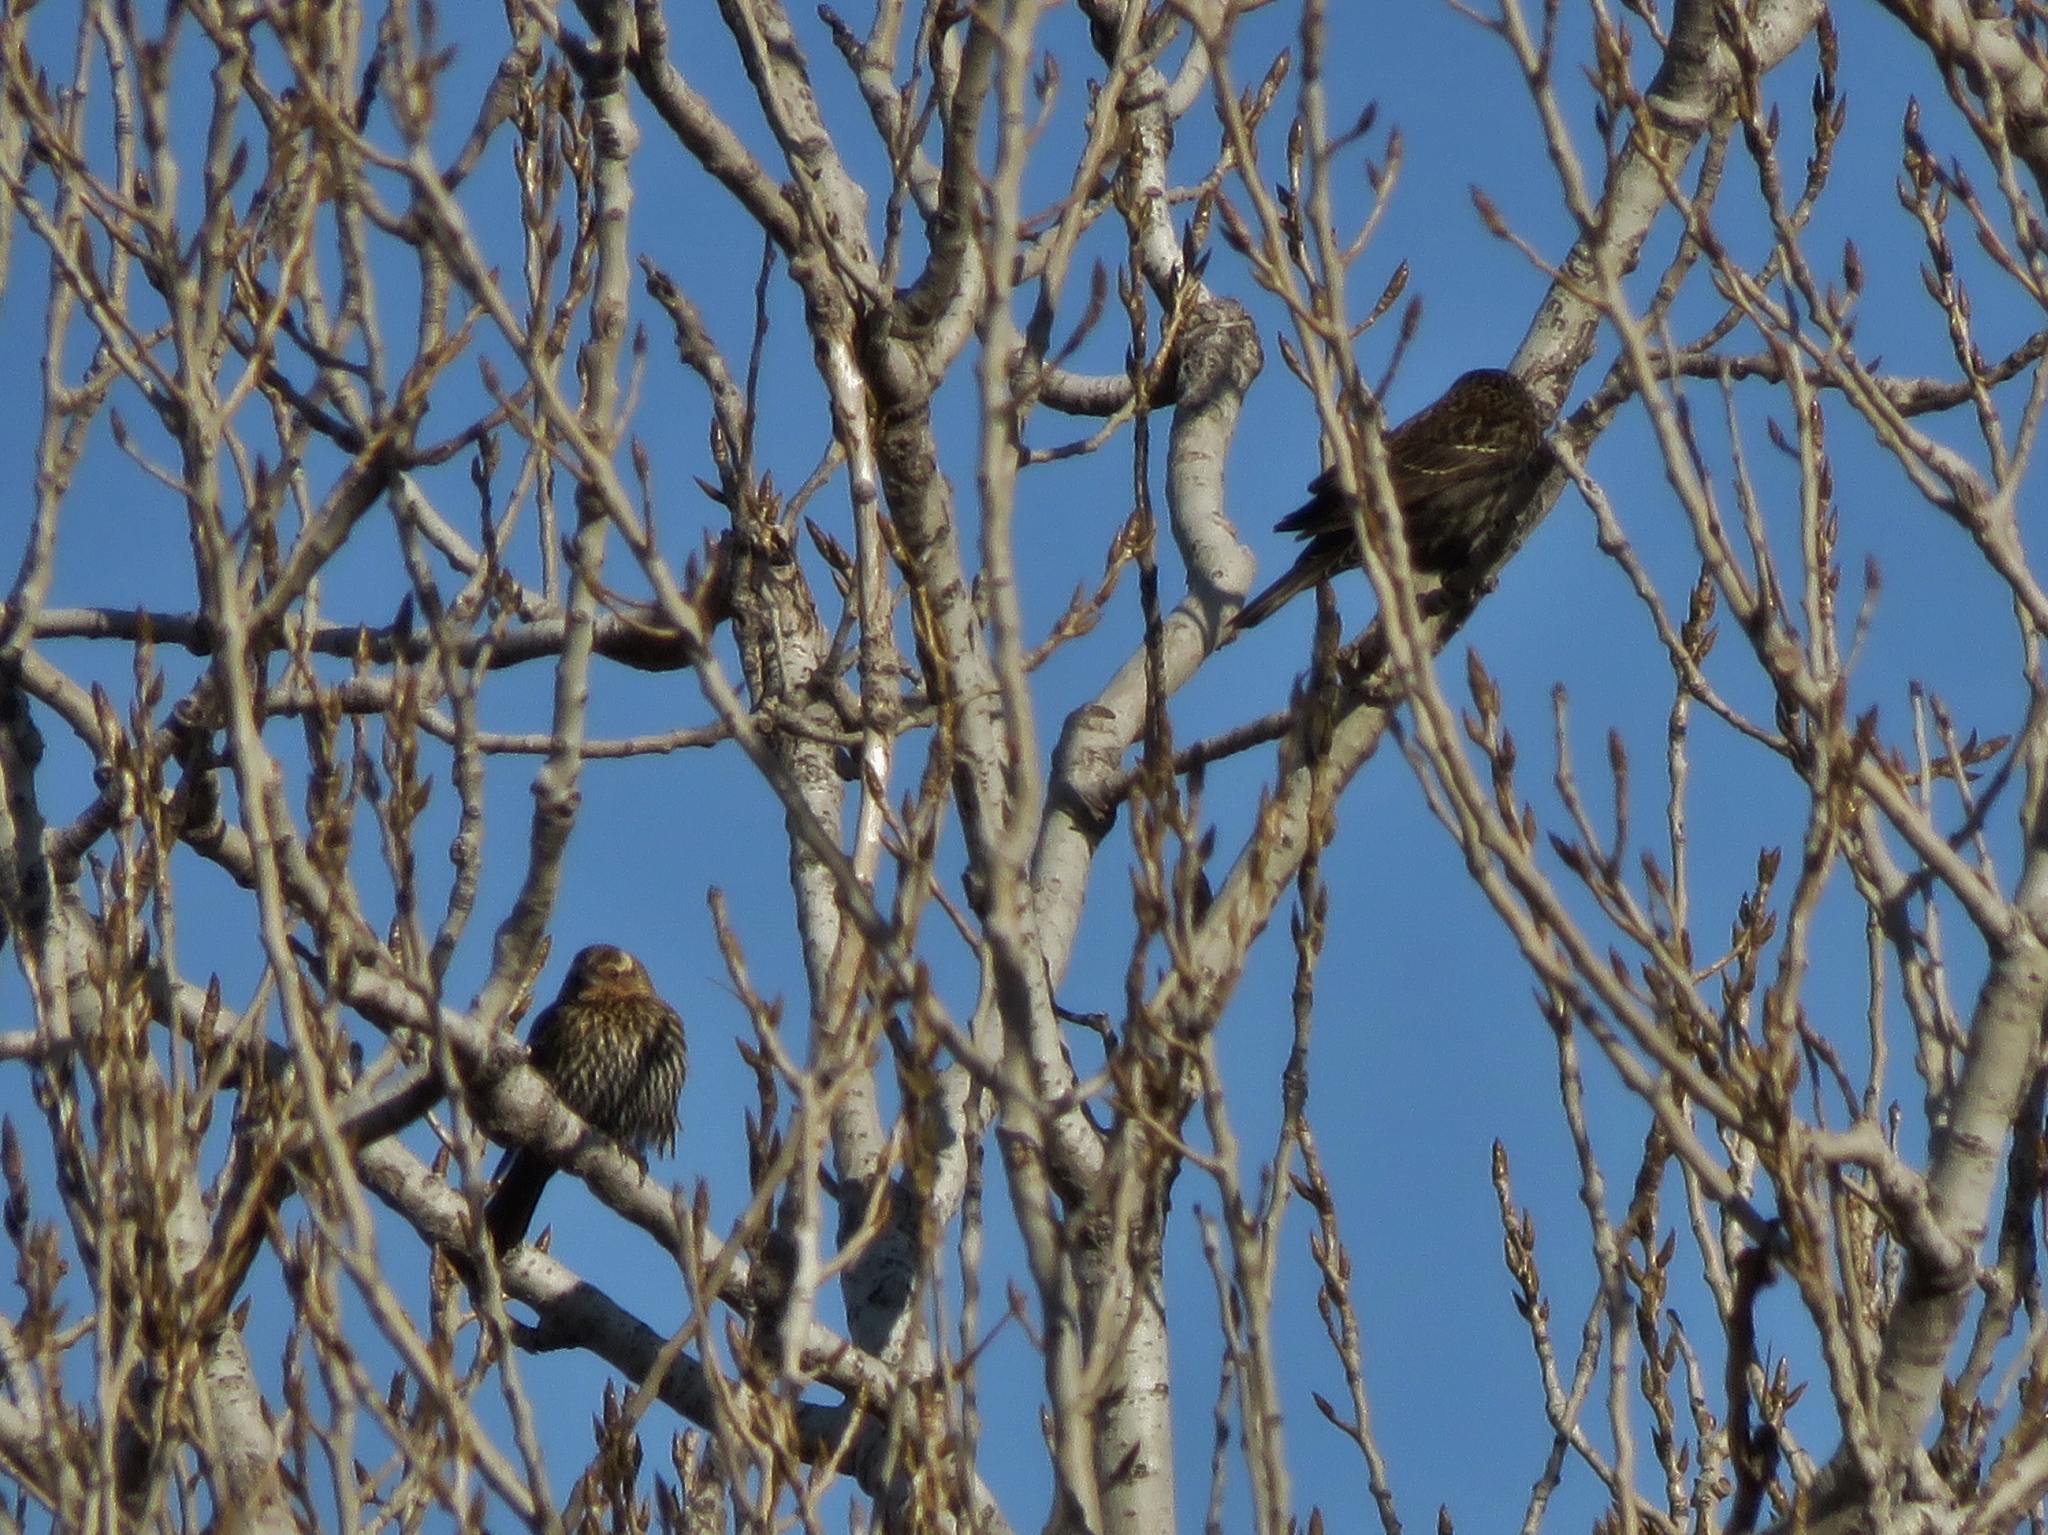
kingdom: Animalia
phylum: Chordata
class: Aves
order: Passeriformes
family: Icteridae
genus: Agelaius
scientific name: Agelaius phoeniceus
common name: Red-winged blackbird
